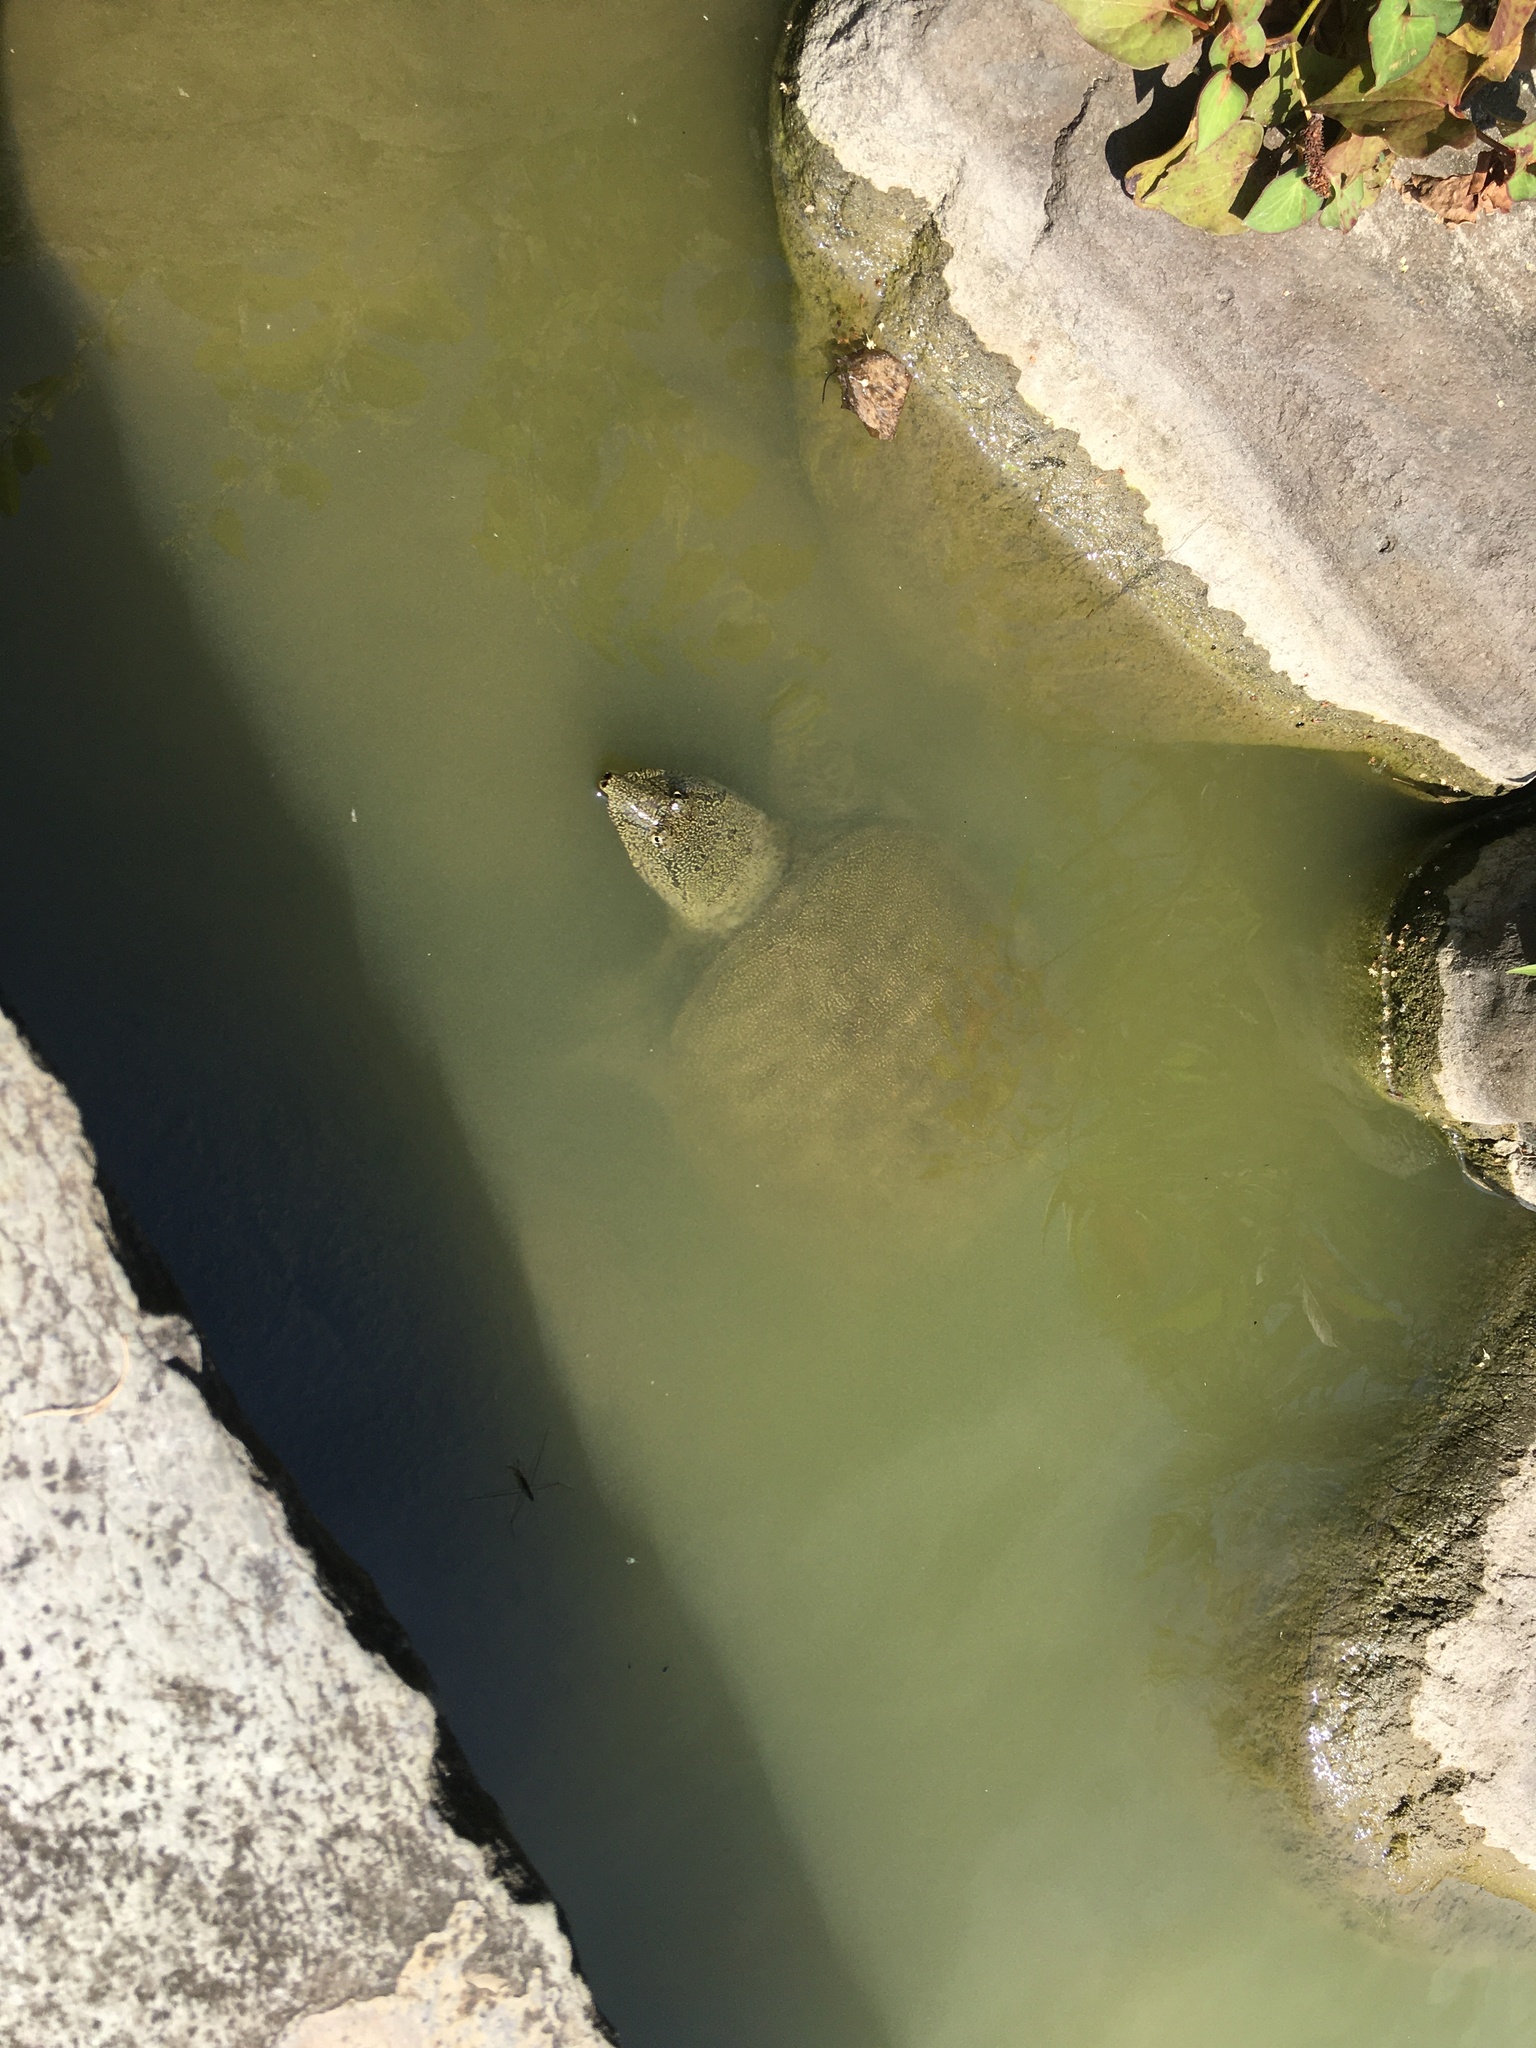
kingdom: Animalia
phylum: Chordata
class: Testudines
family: Trionychidae
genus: Pelodiscus
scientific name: Pelodiscus sinensis
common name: Chinese softshell turtle
